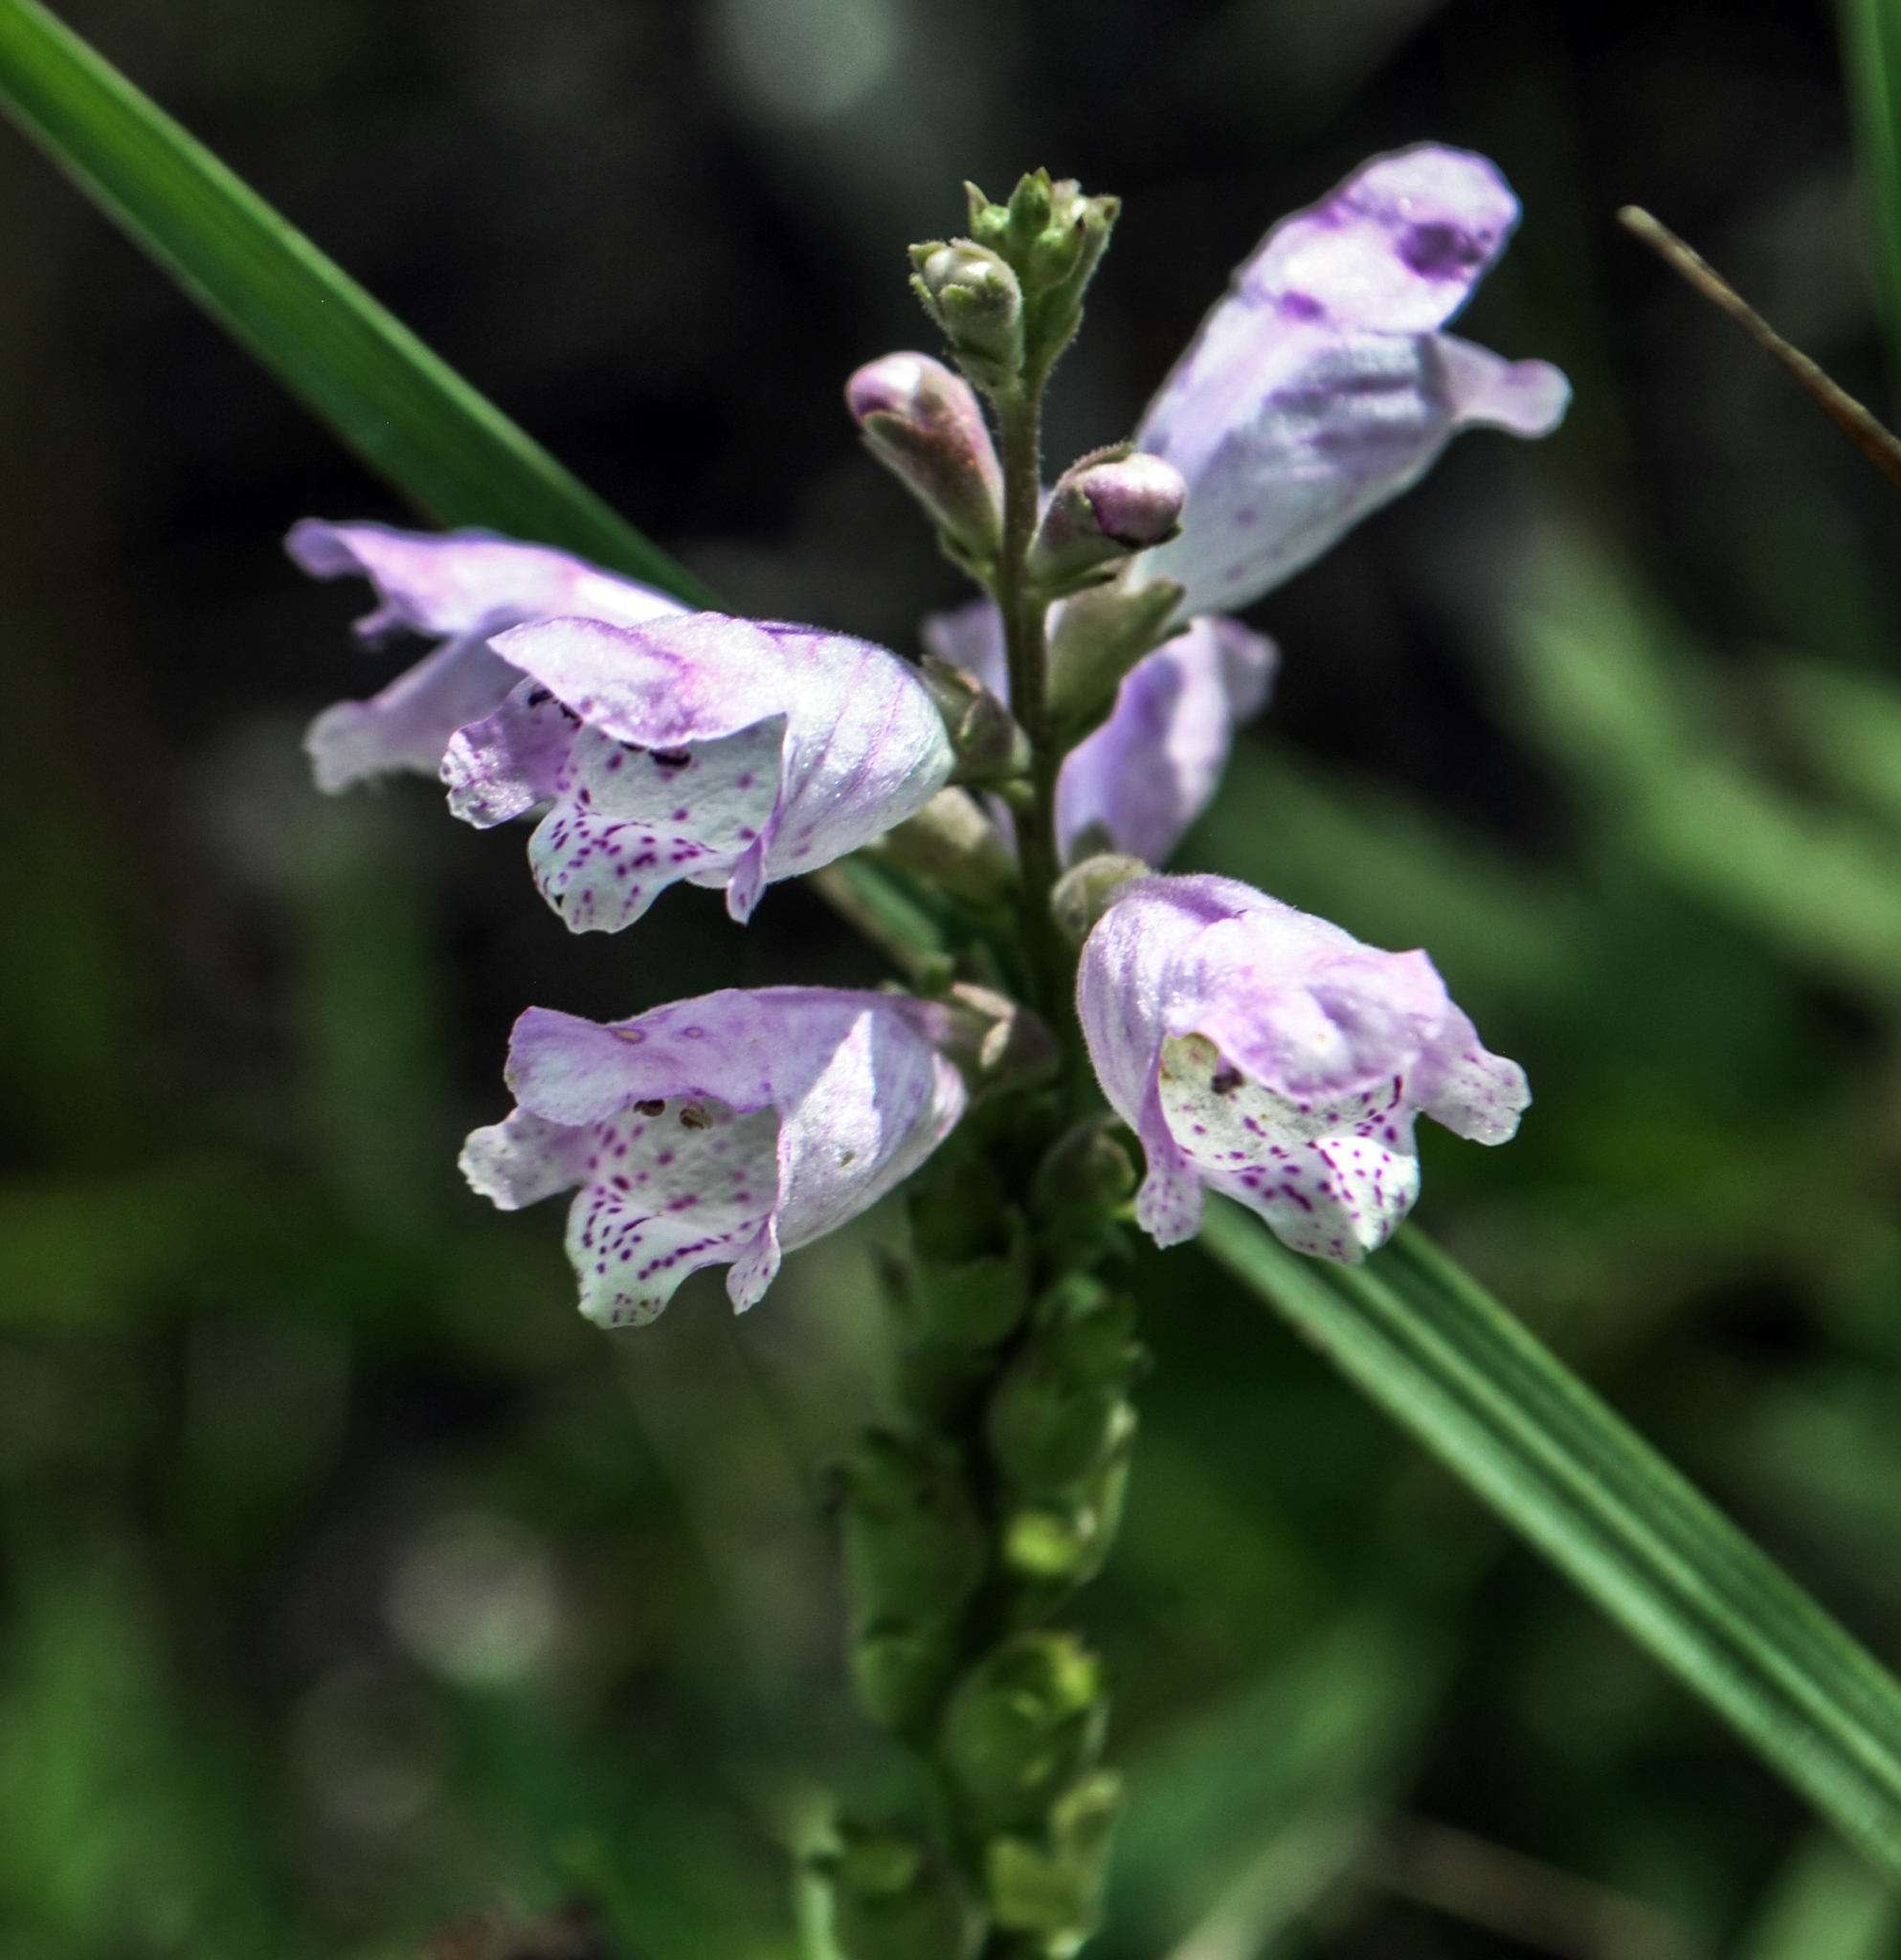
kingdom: Plantae
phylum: Tracheophyta
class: Magnoliopsida
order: Lamiales
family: Lamiaceae
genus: Physostegia
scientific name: Physostegia virginiana
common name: Obedient-plant
